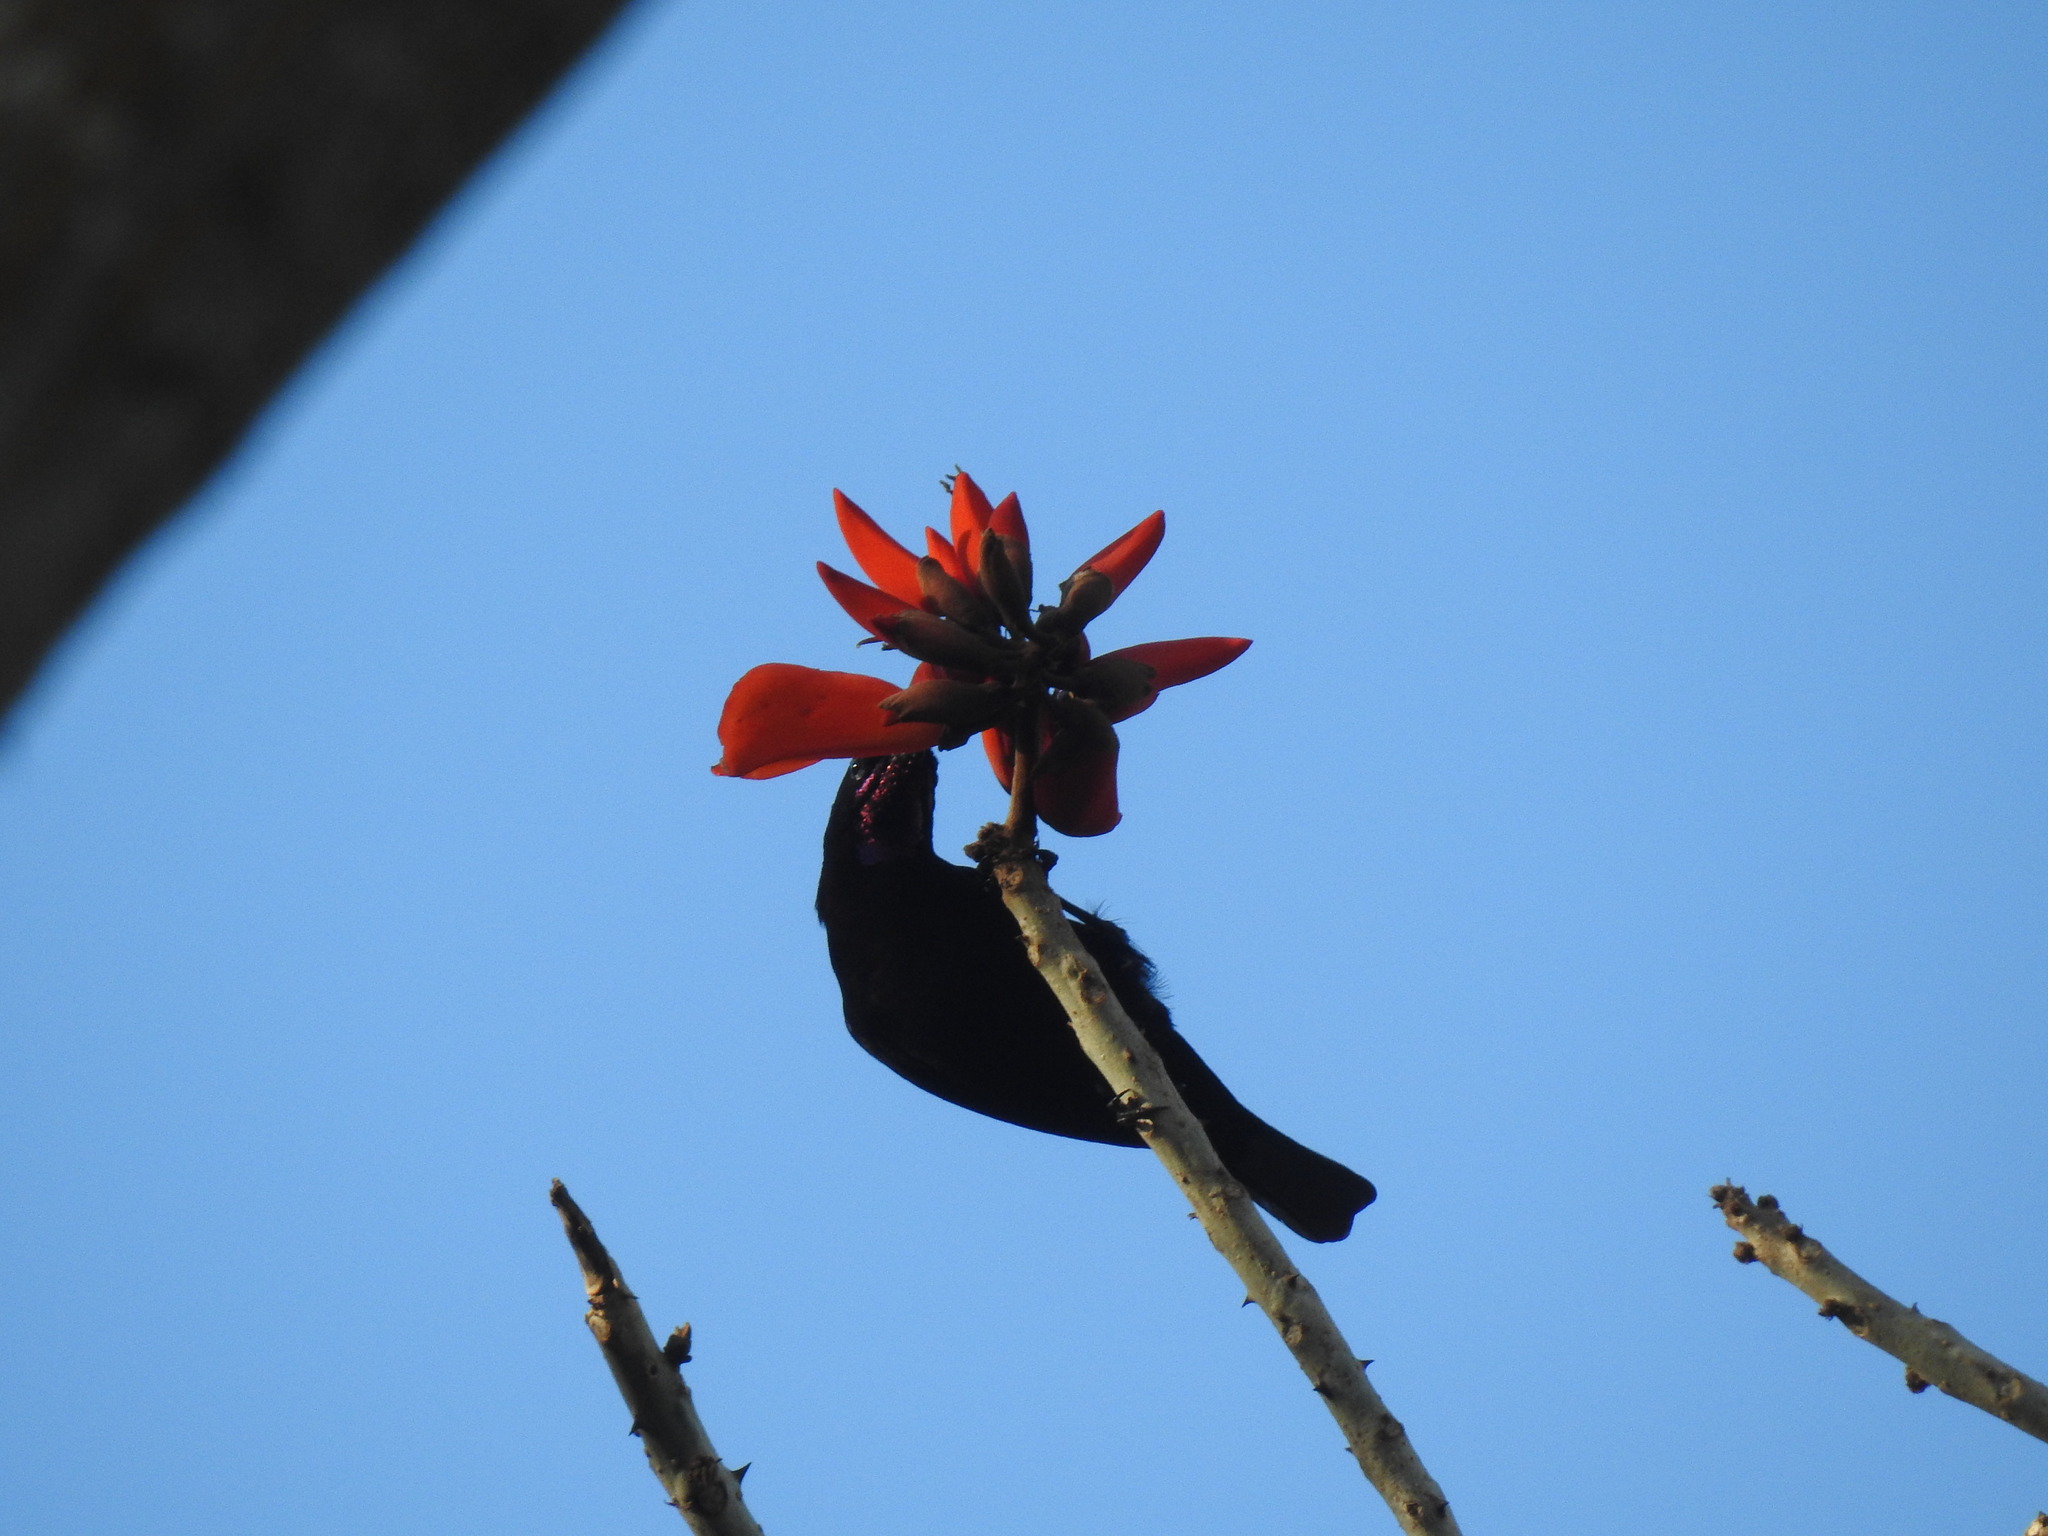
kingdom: Animalia
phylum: Chordata
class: Aves
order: Passeriformes
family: Nectariniidae
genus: Chalcomitra
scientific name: Chalcomitra amethystina
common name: Amethyst sunbird
